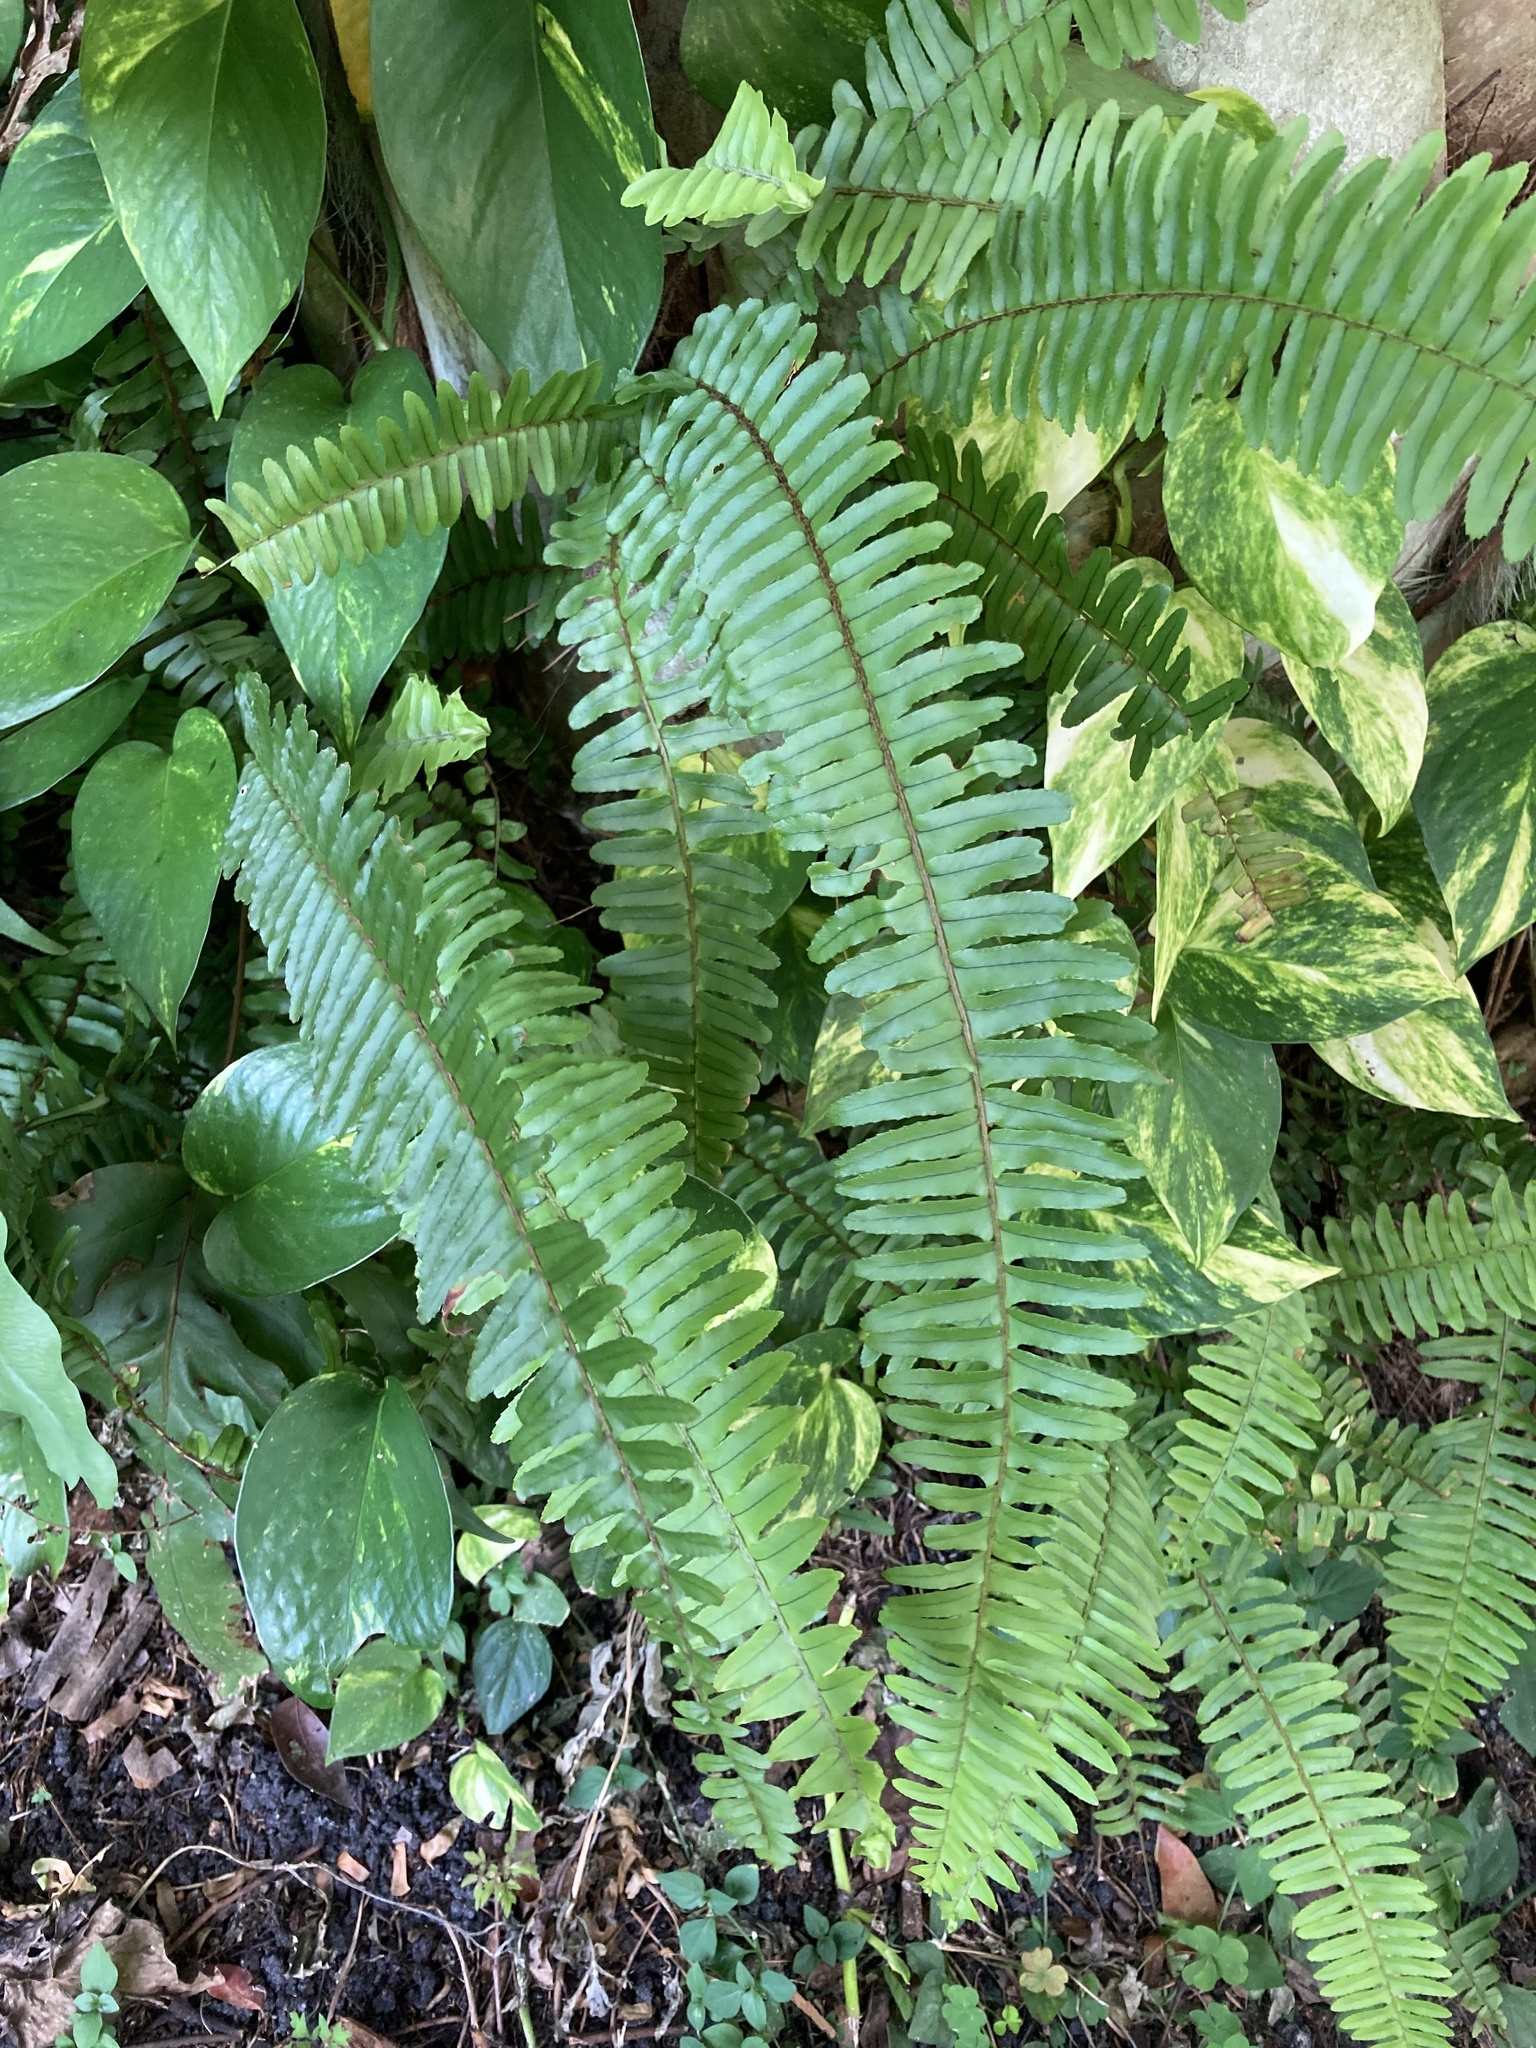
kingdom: Plantae
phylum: Tracheophyta
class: Polypodiopsida
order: Polypodiales
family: Nephrolepidaceae
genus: Nephrolepis
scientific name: Nephrolepis cordifolia
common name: Narrow swordfern
